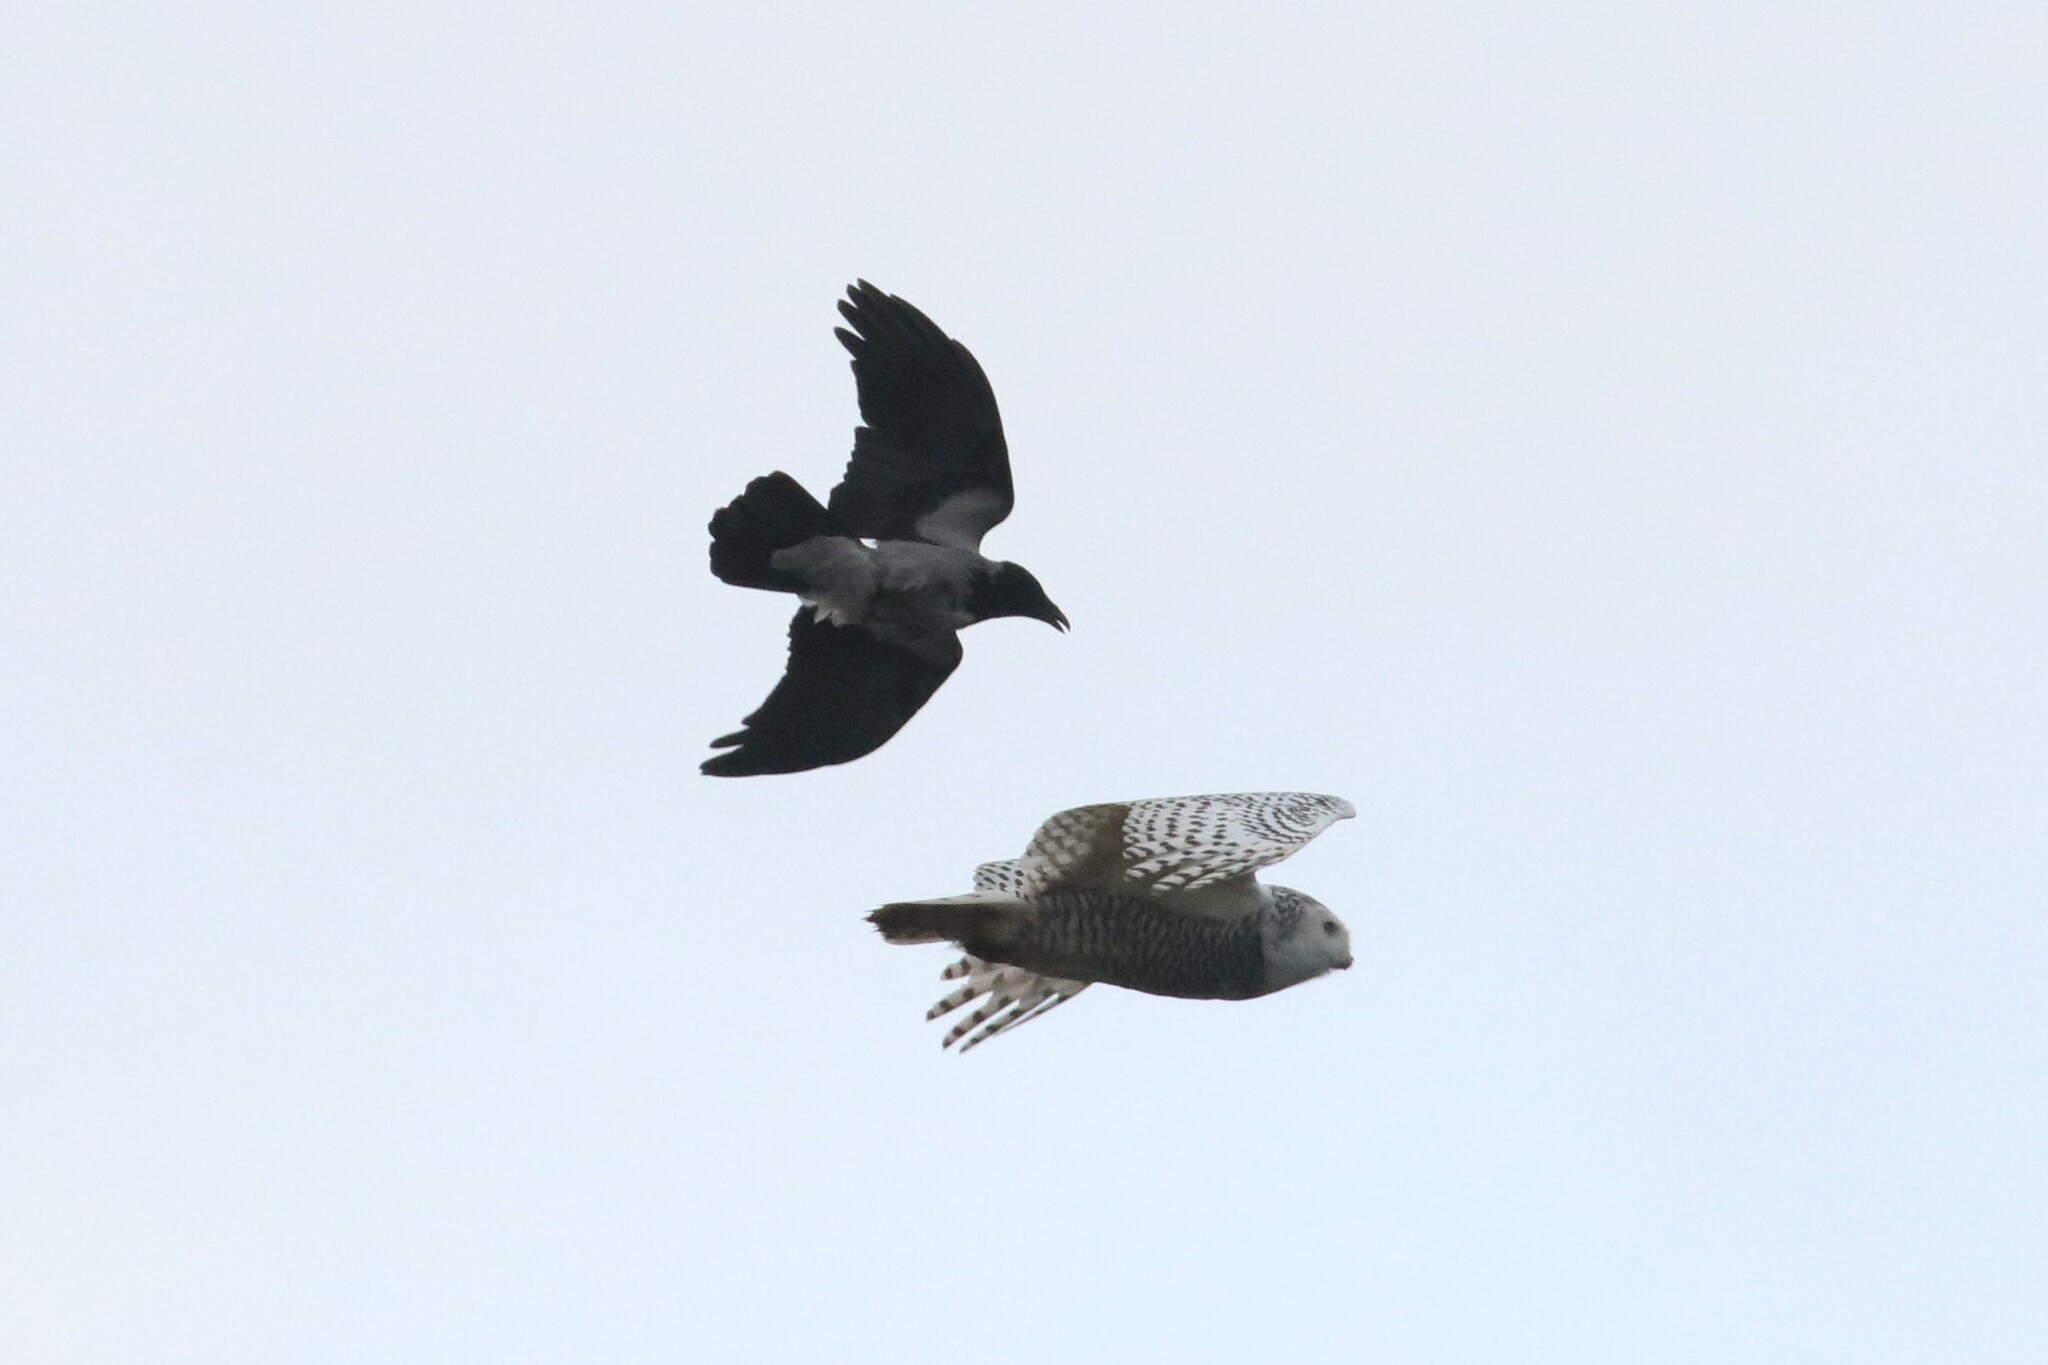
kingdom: Animalia
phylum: Chordata
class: Aves
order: Strigiformes
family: Strigidae
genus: Bubo
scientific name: Bubo scandiacus
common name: Snowy owl
